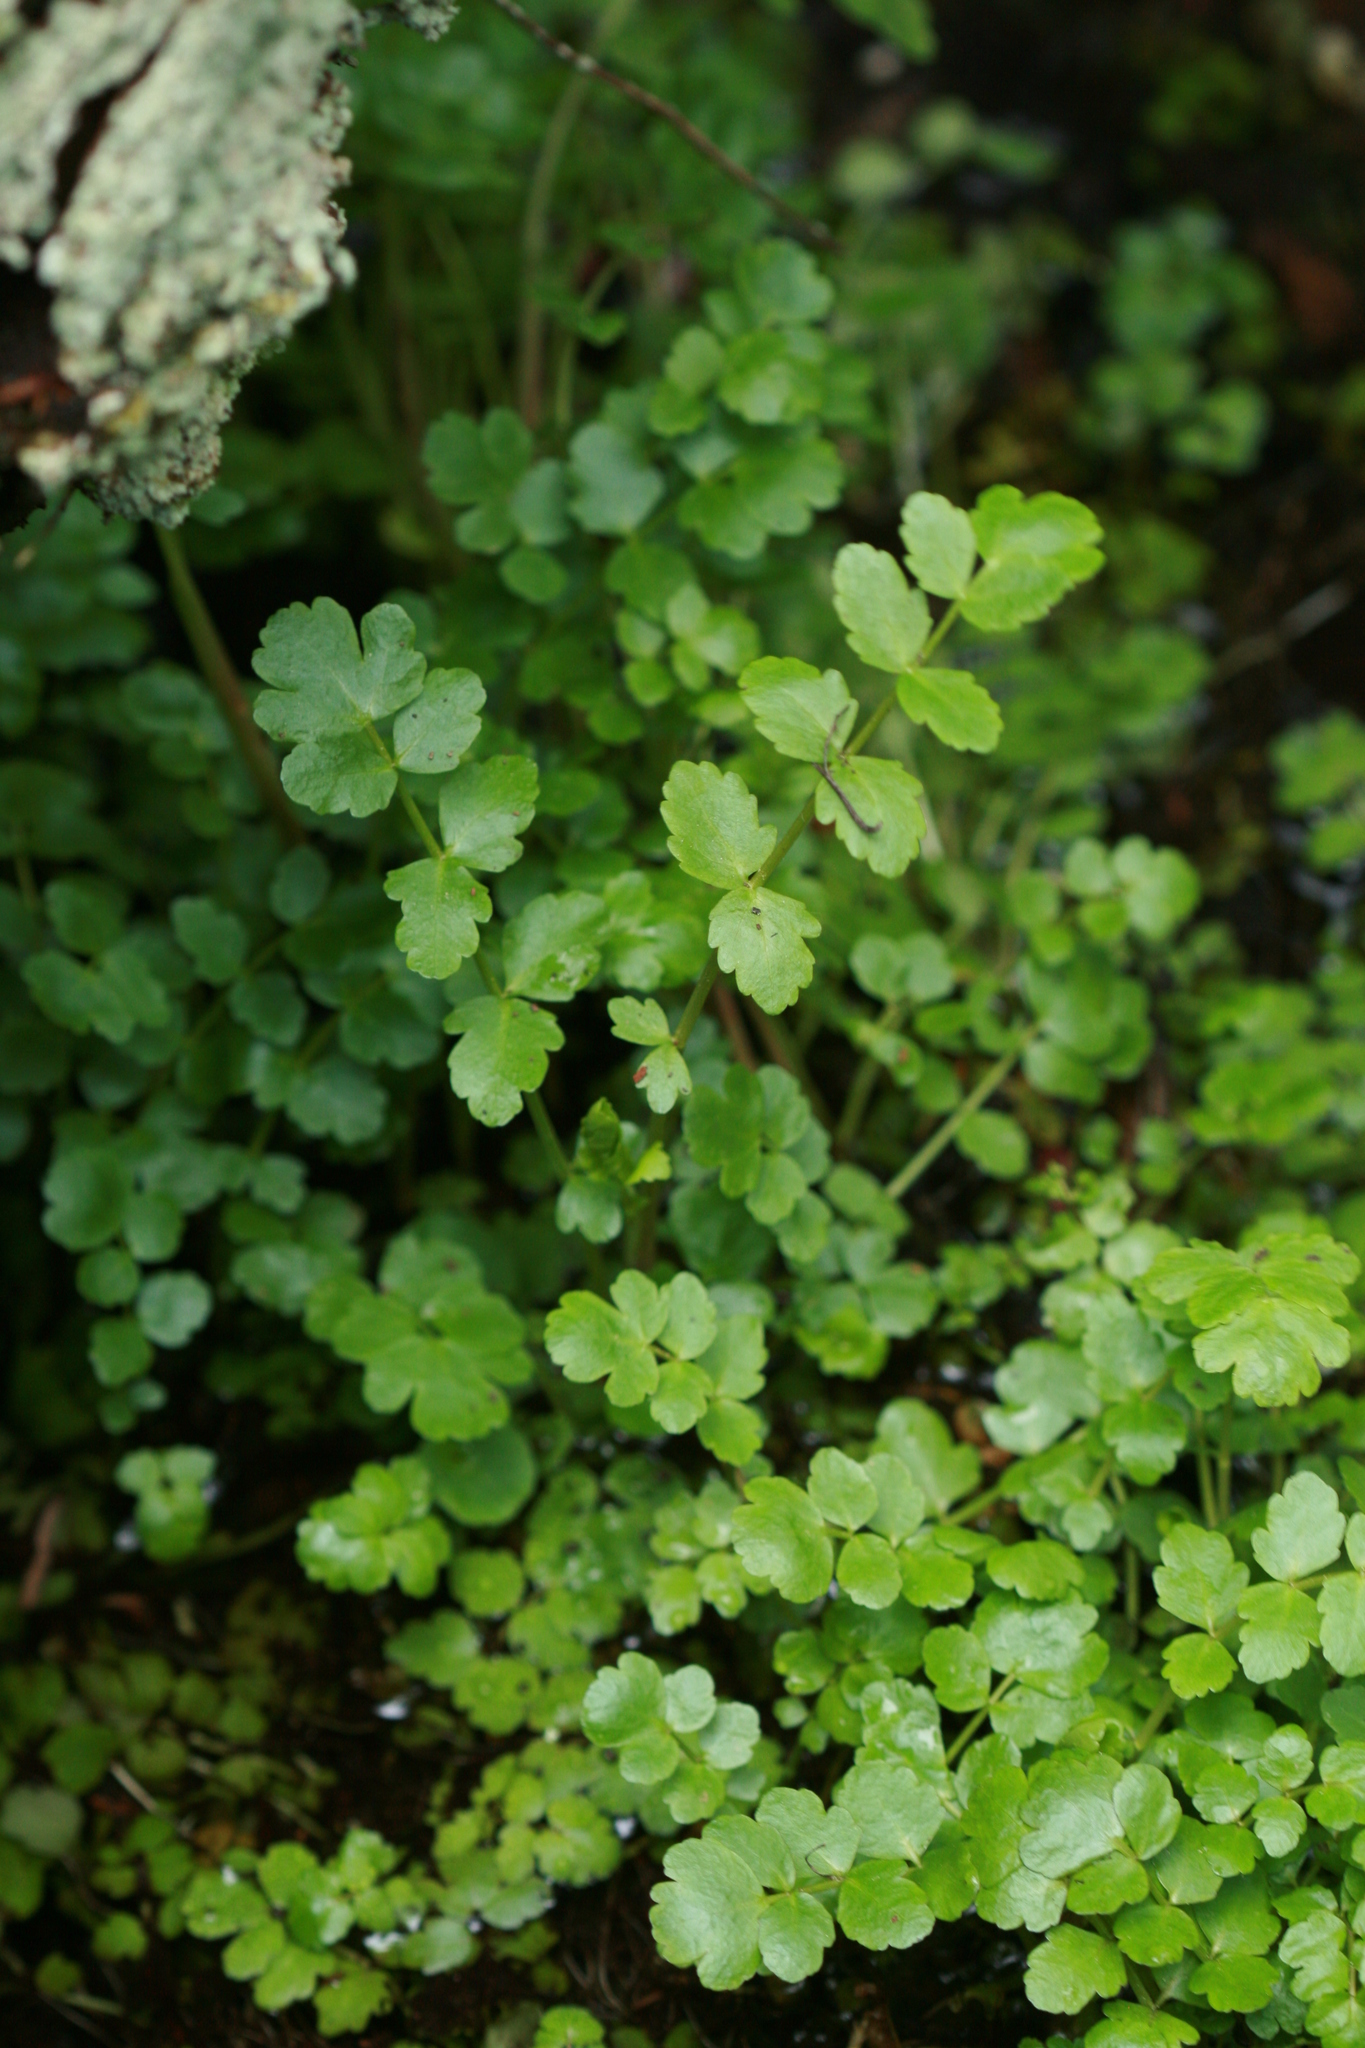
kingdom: Plantae
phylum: Tracheophyta
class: Magnoliopsida
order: Apiales
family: Apiaceae
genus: Berula
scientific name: Berula erecta
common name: Lesser water-parsnip
